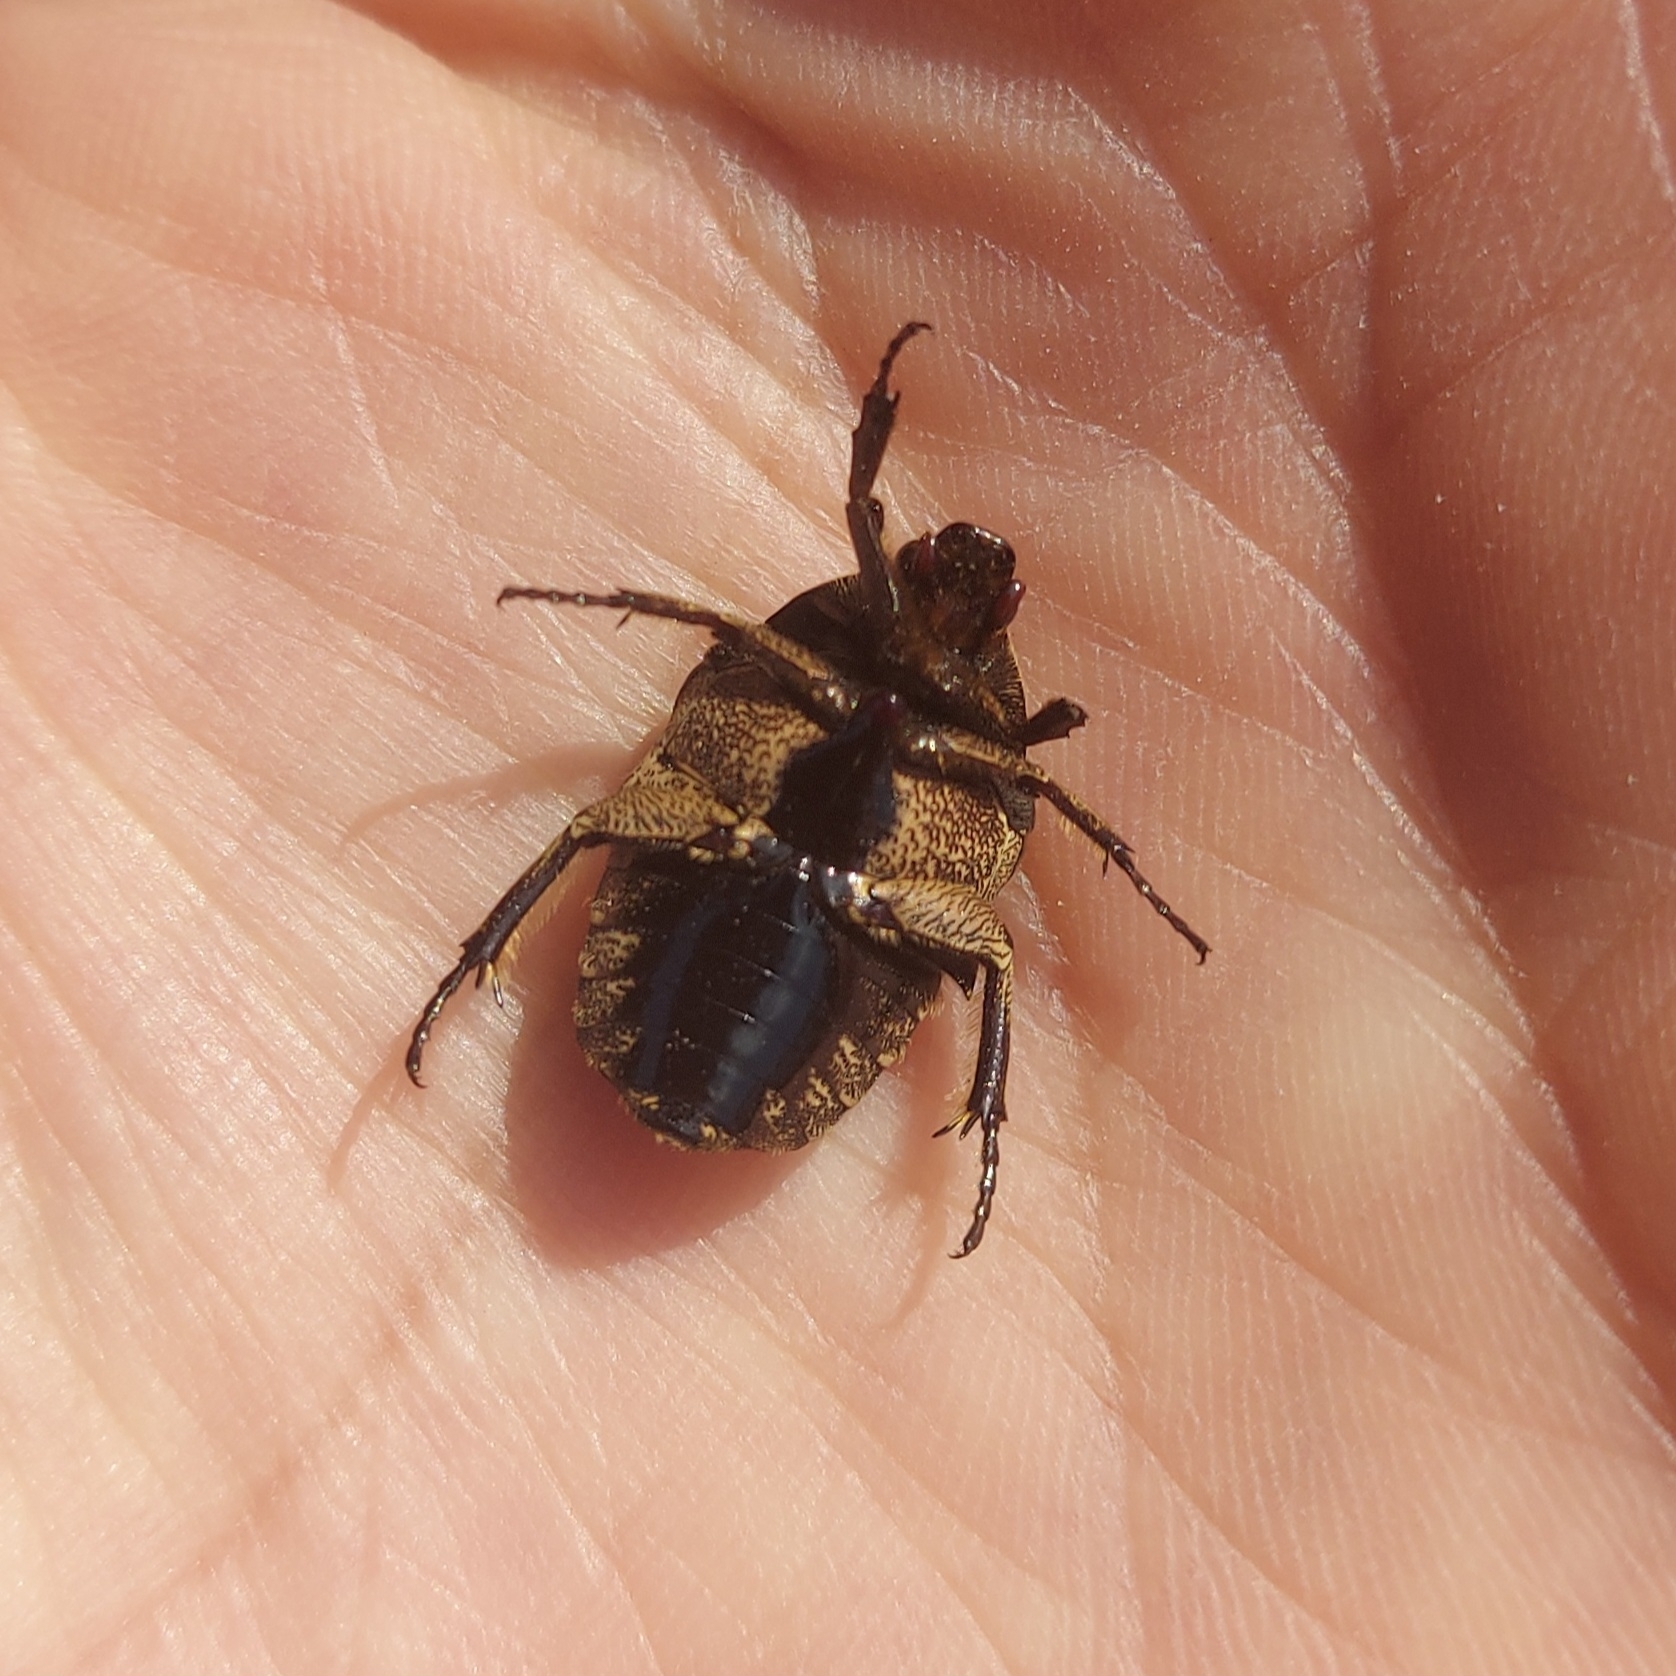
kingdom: Animalia
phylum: Arthropoda
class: Insecta
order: Coleoptera
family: Scarabaeidae
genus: Hoplopyga
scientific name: Hoplopyga liturata
